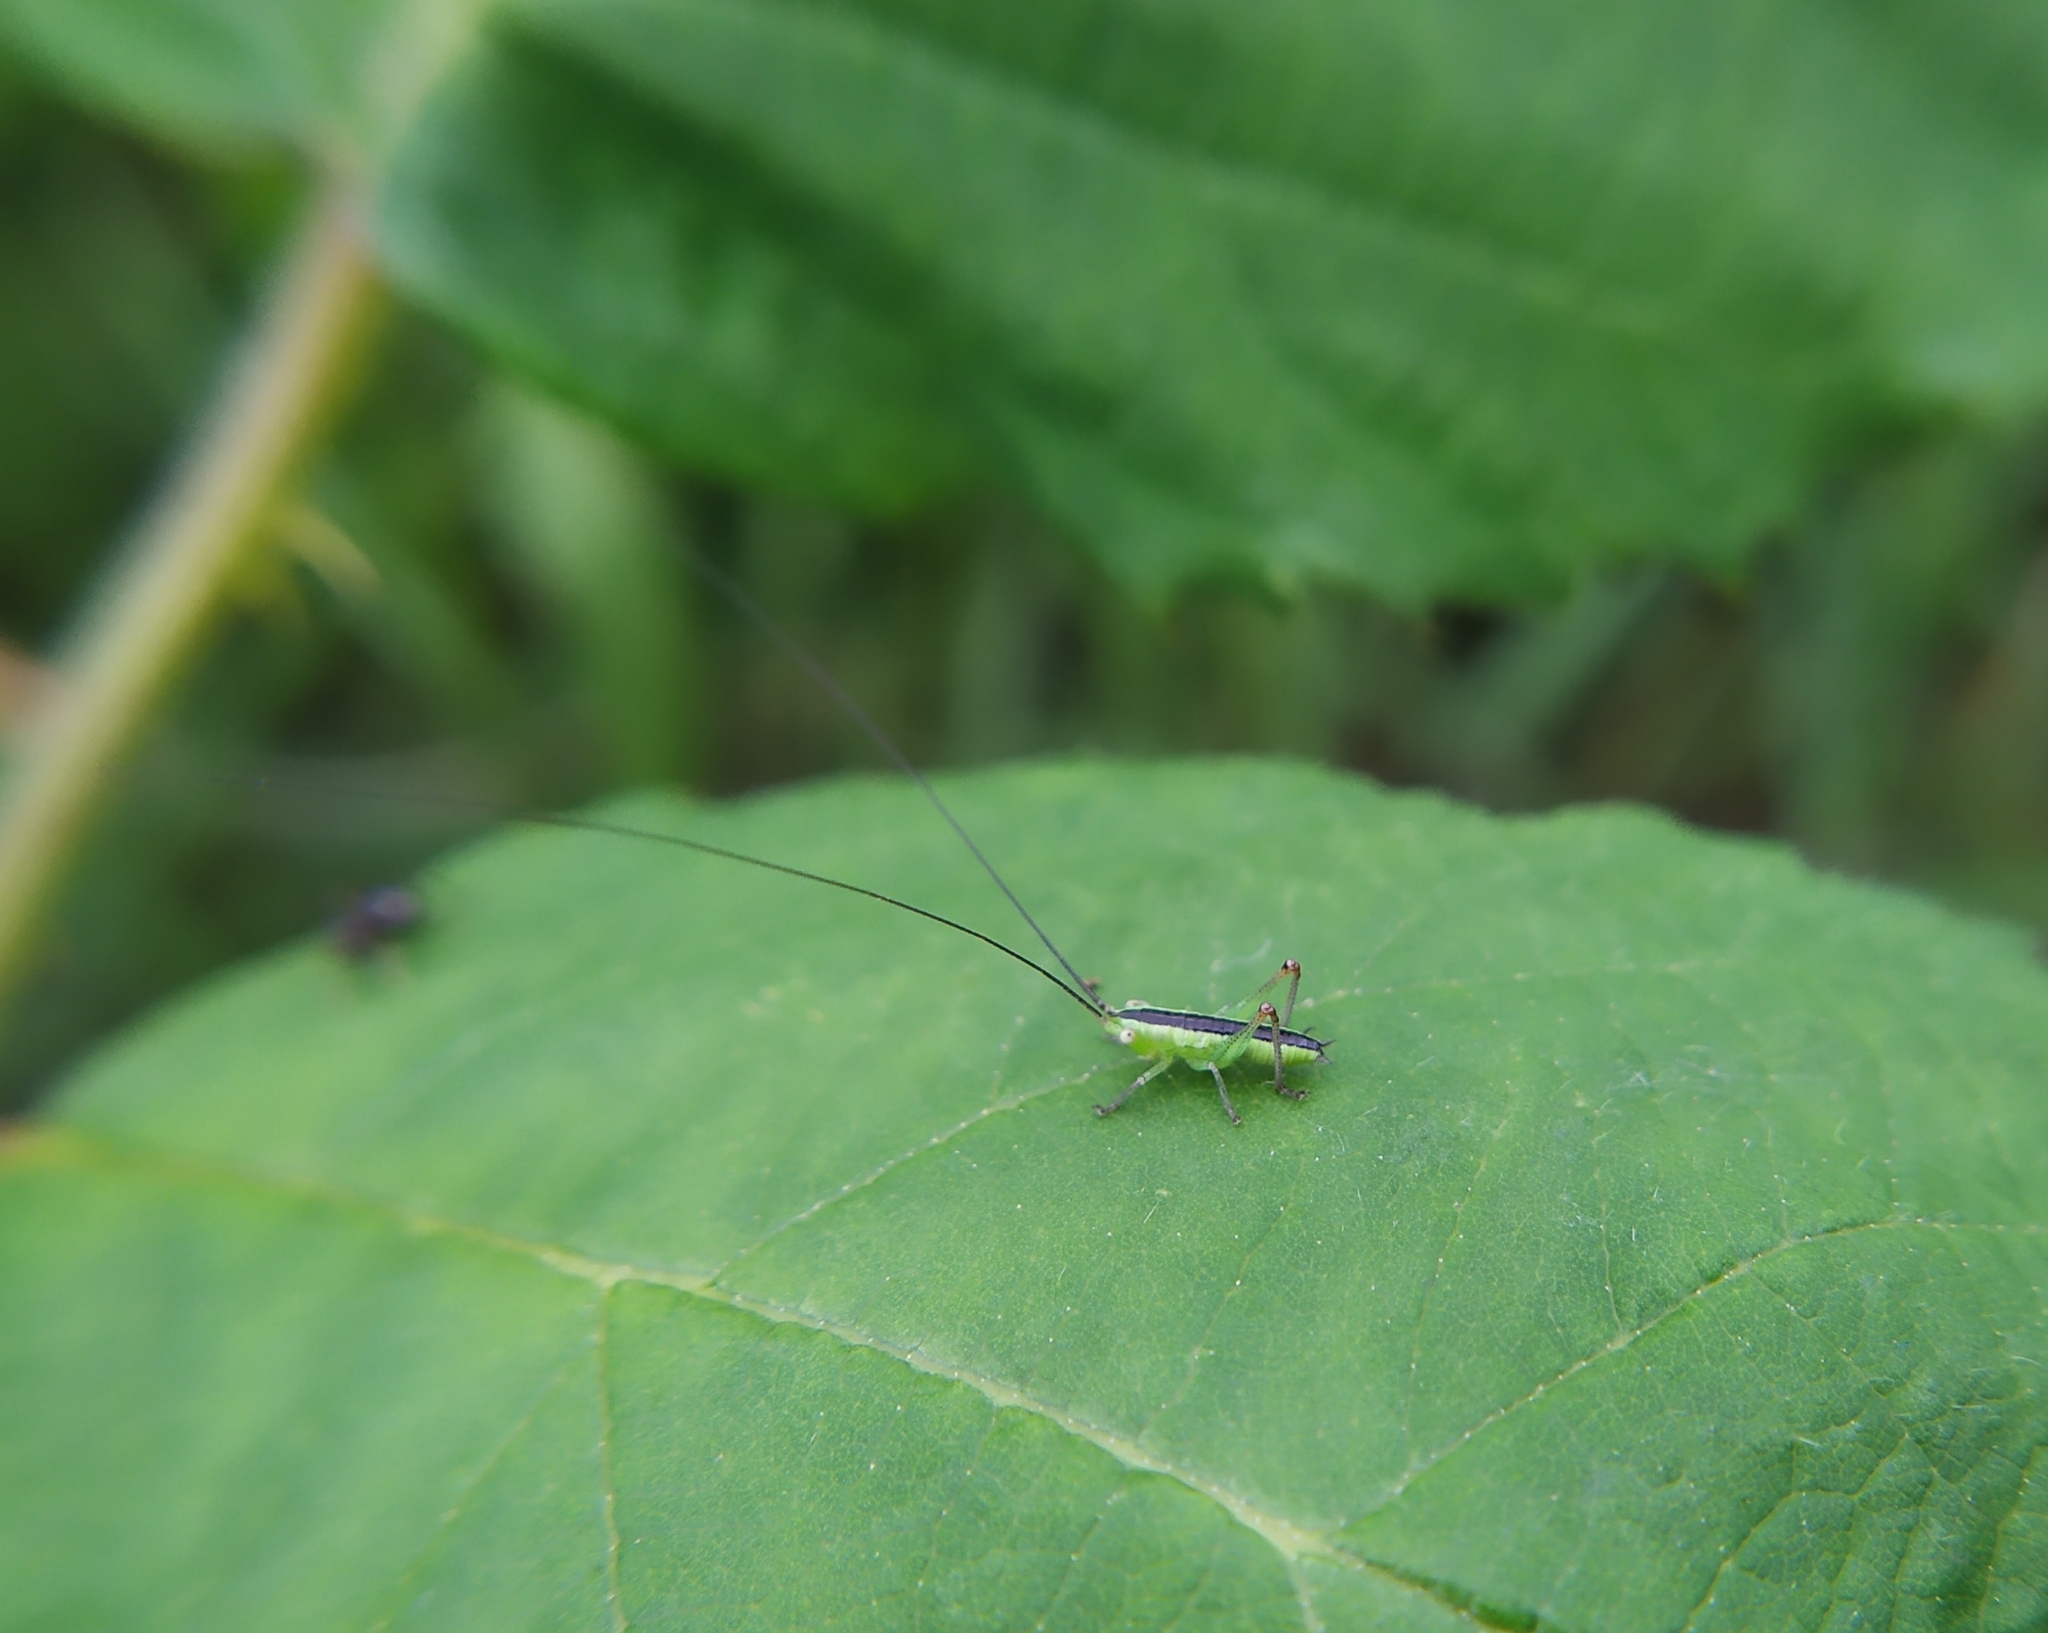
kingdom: Animalia
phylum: Arthropoda
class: Insecta
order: Orthoptera
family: Tettigoniidae
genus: Conocephalus
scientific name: Conocephalus fuscus
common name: Long-winged conehead
